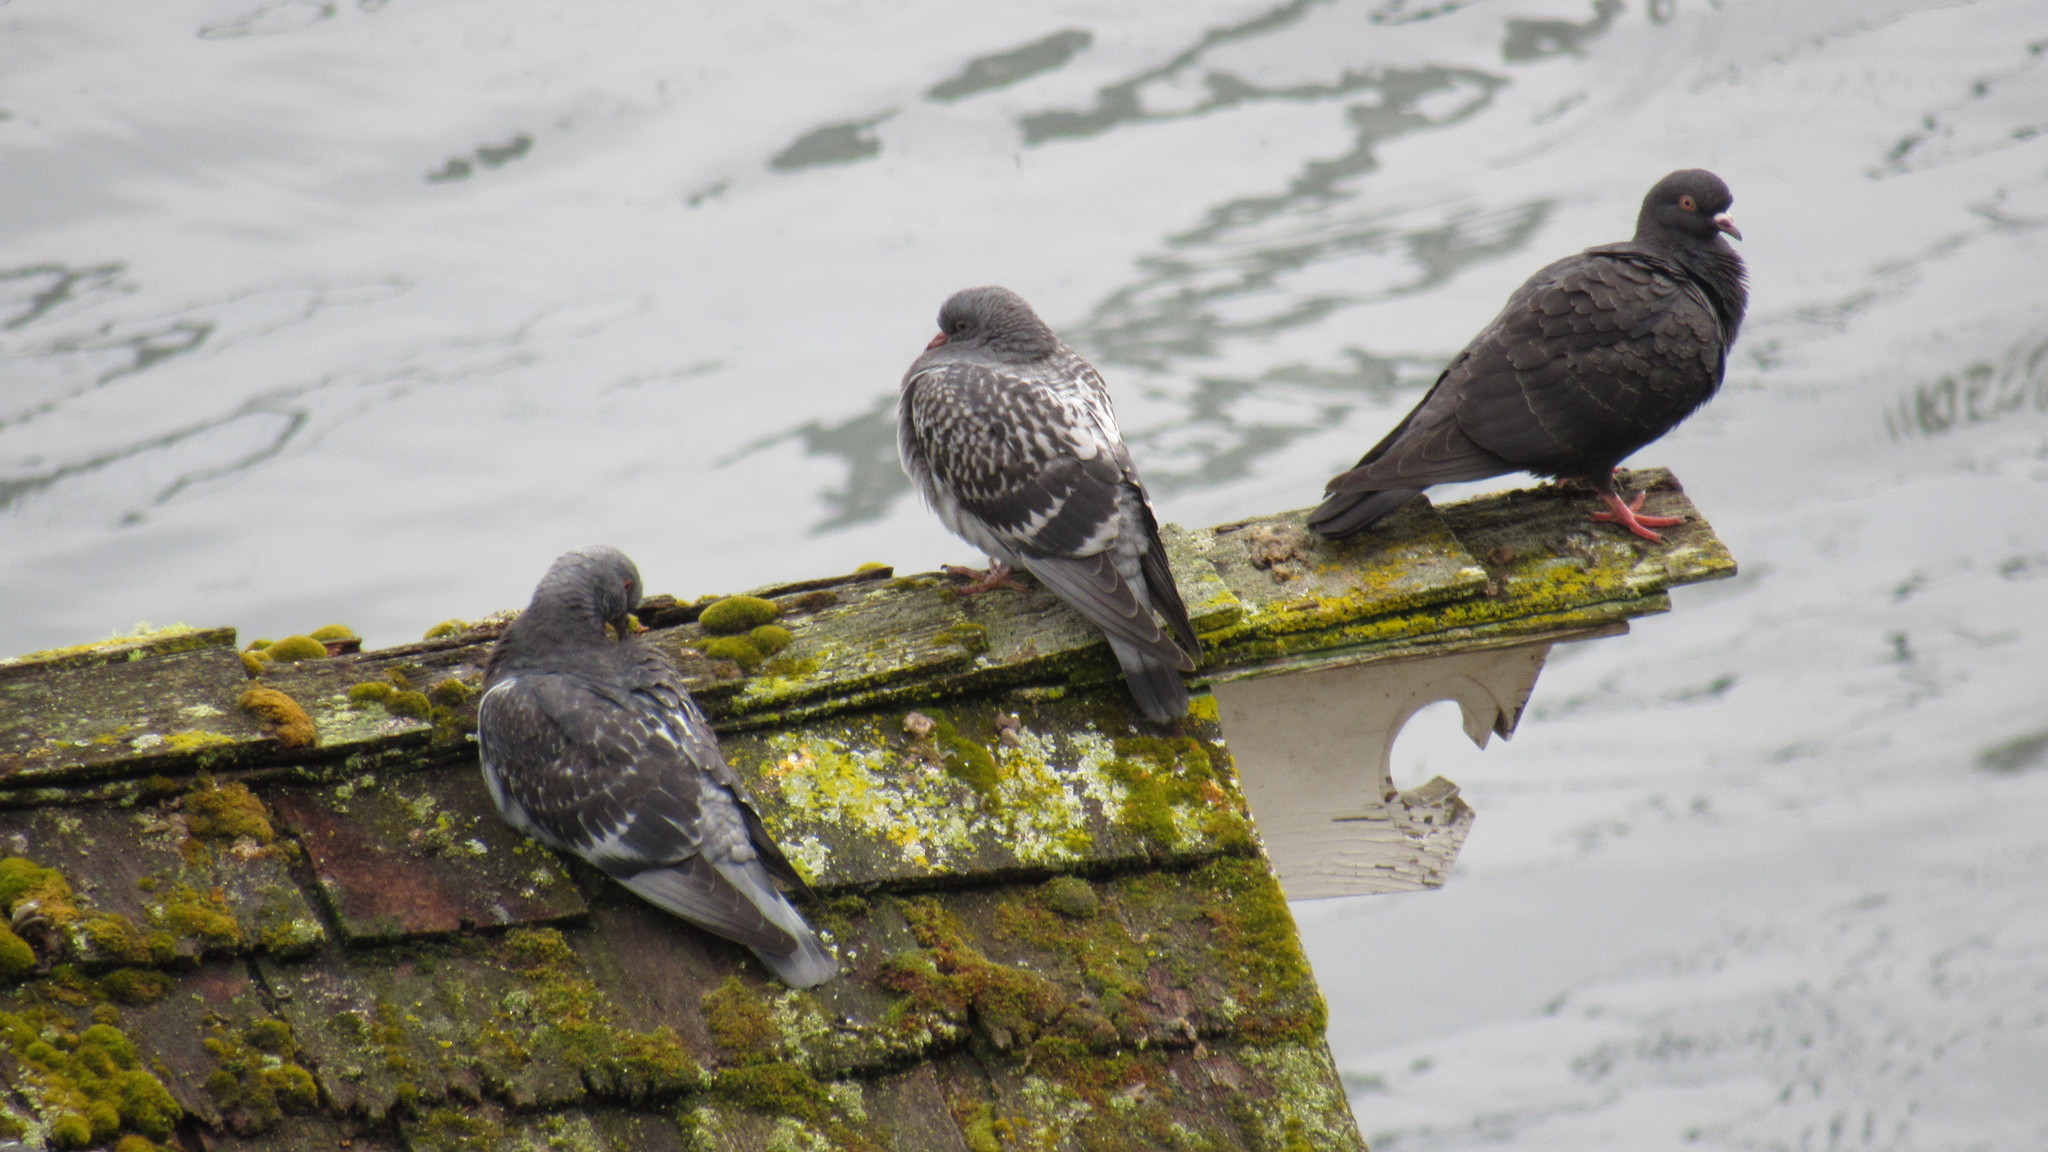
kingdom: Animalia
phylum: Chordata
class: Aves
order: Columbiformes
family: Columbidae
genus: Columba
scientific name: Columba livia
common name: Rock pigeon
